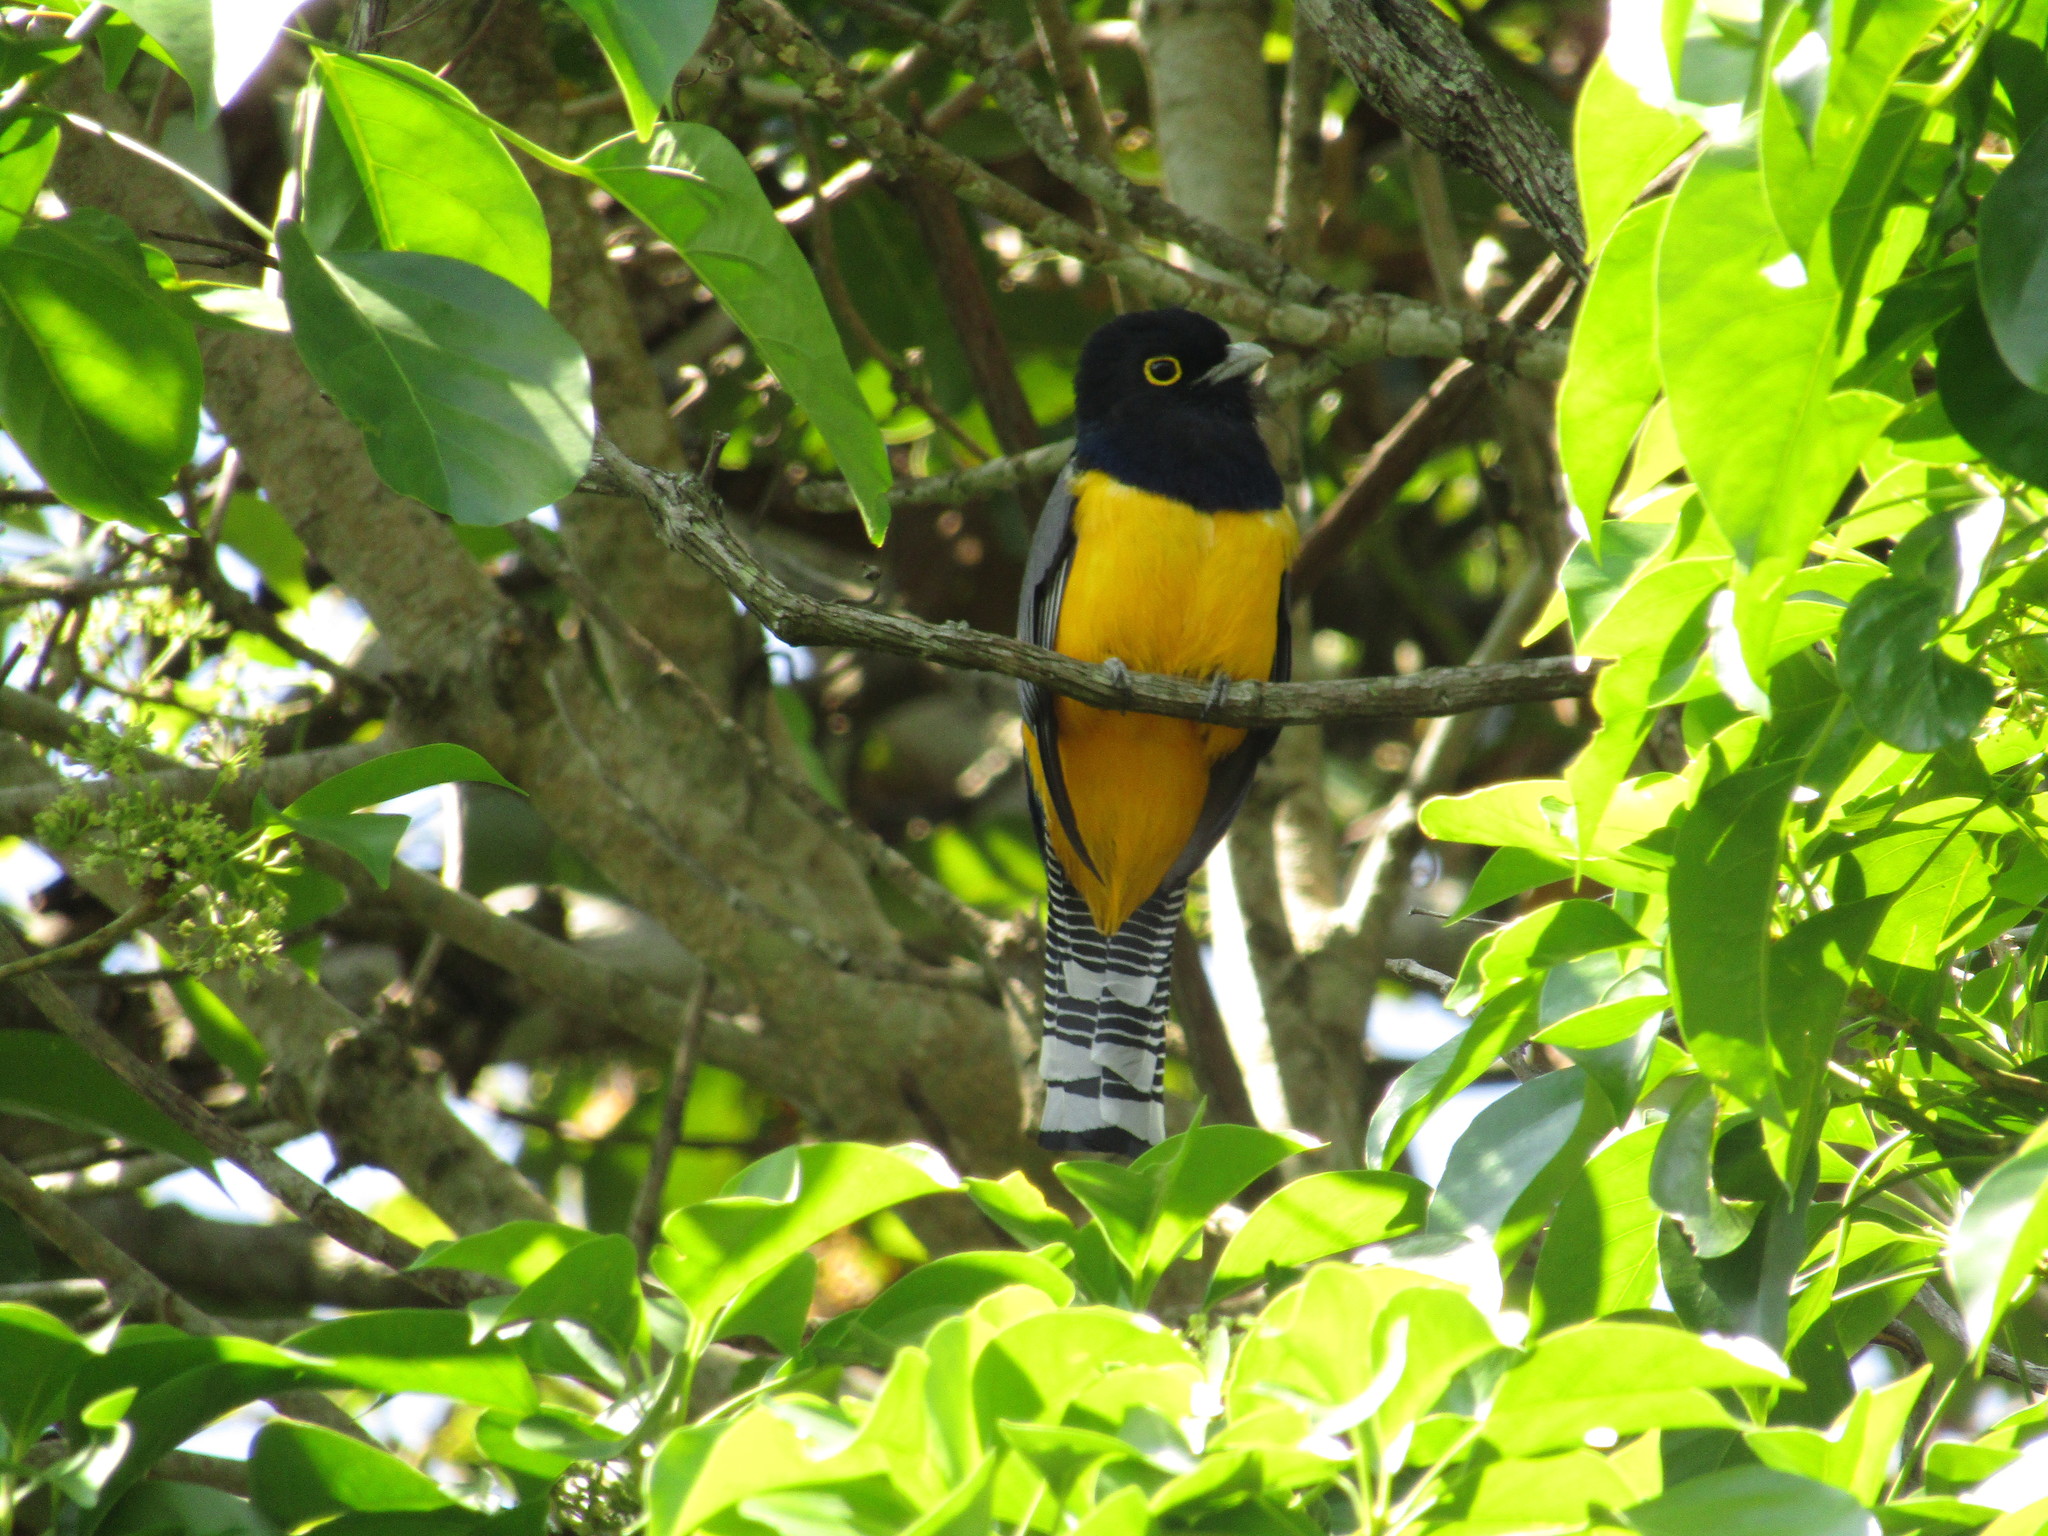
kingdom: Animalia
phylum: Chordata
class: Aves
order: Trogoniformes
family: Trogonidae
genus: Trogon
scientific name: Trogon caligatus
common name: Gartered trogon
